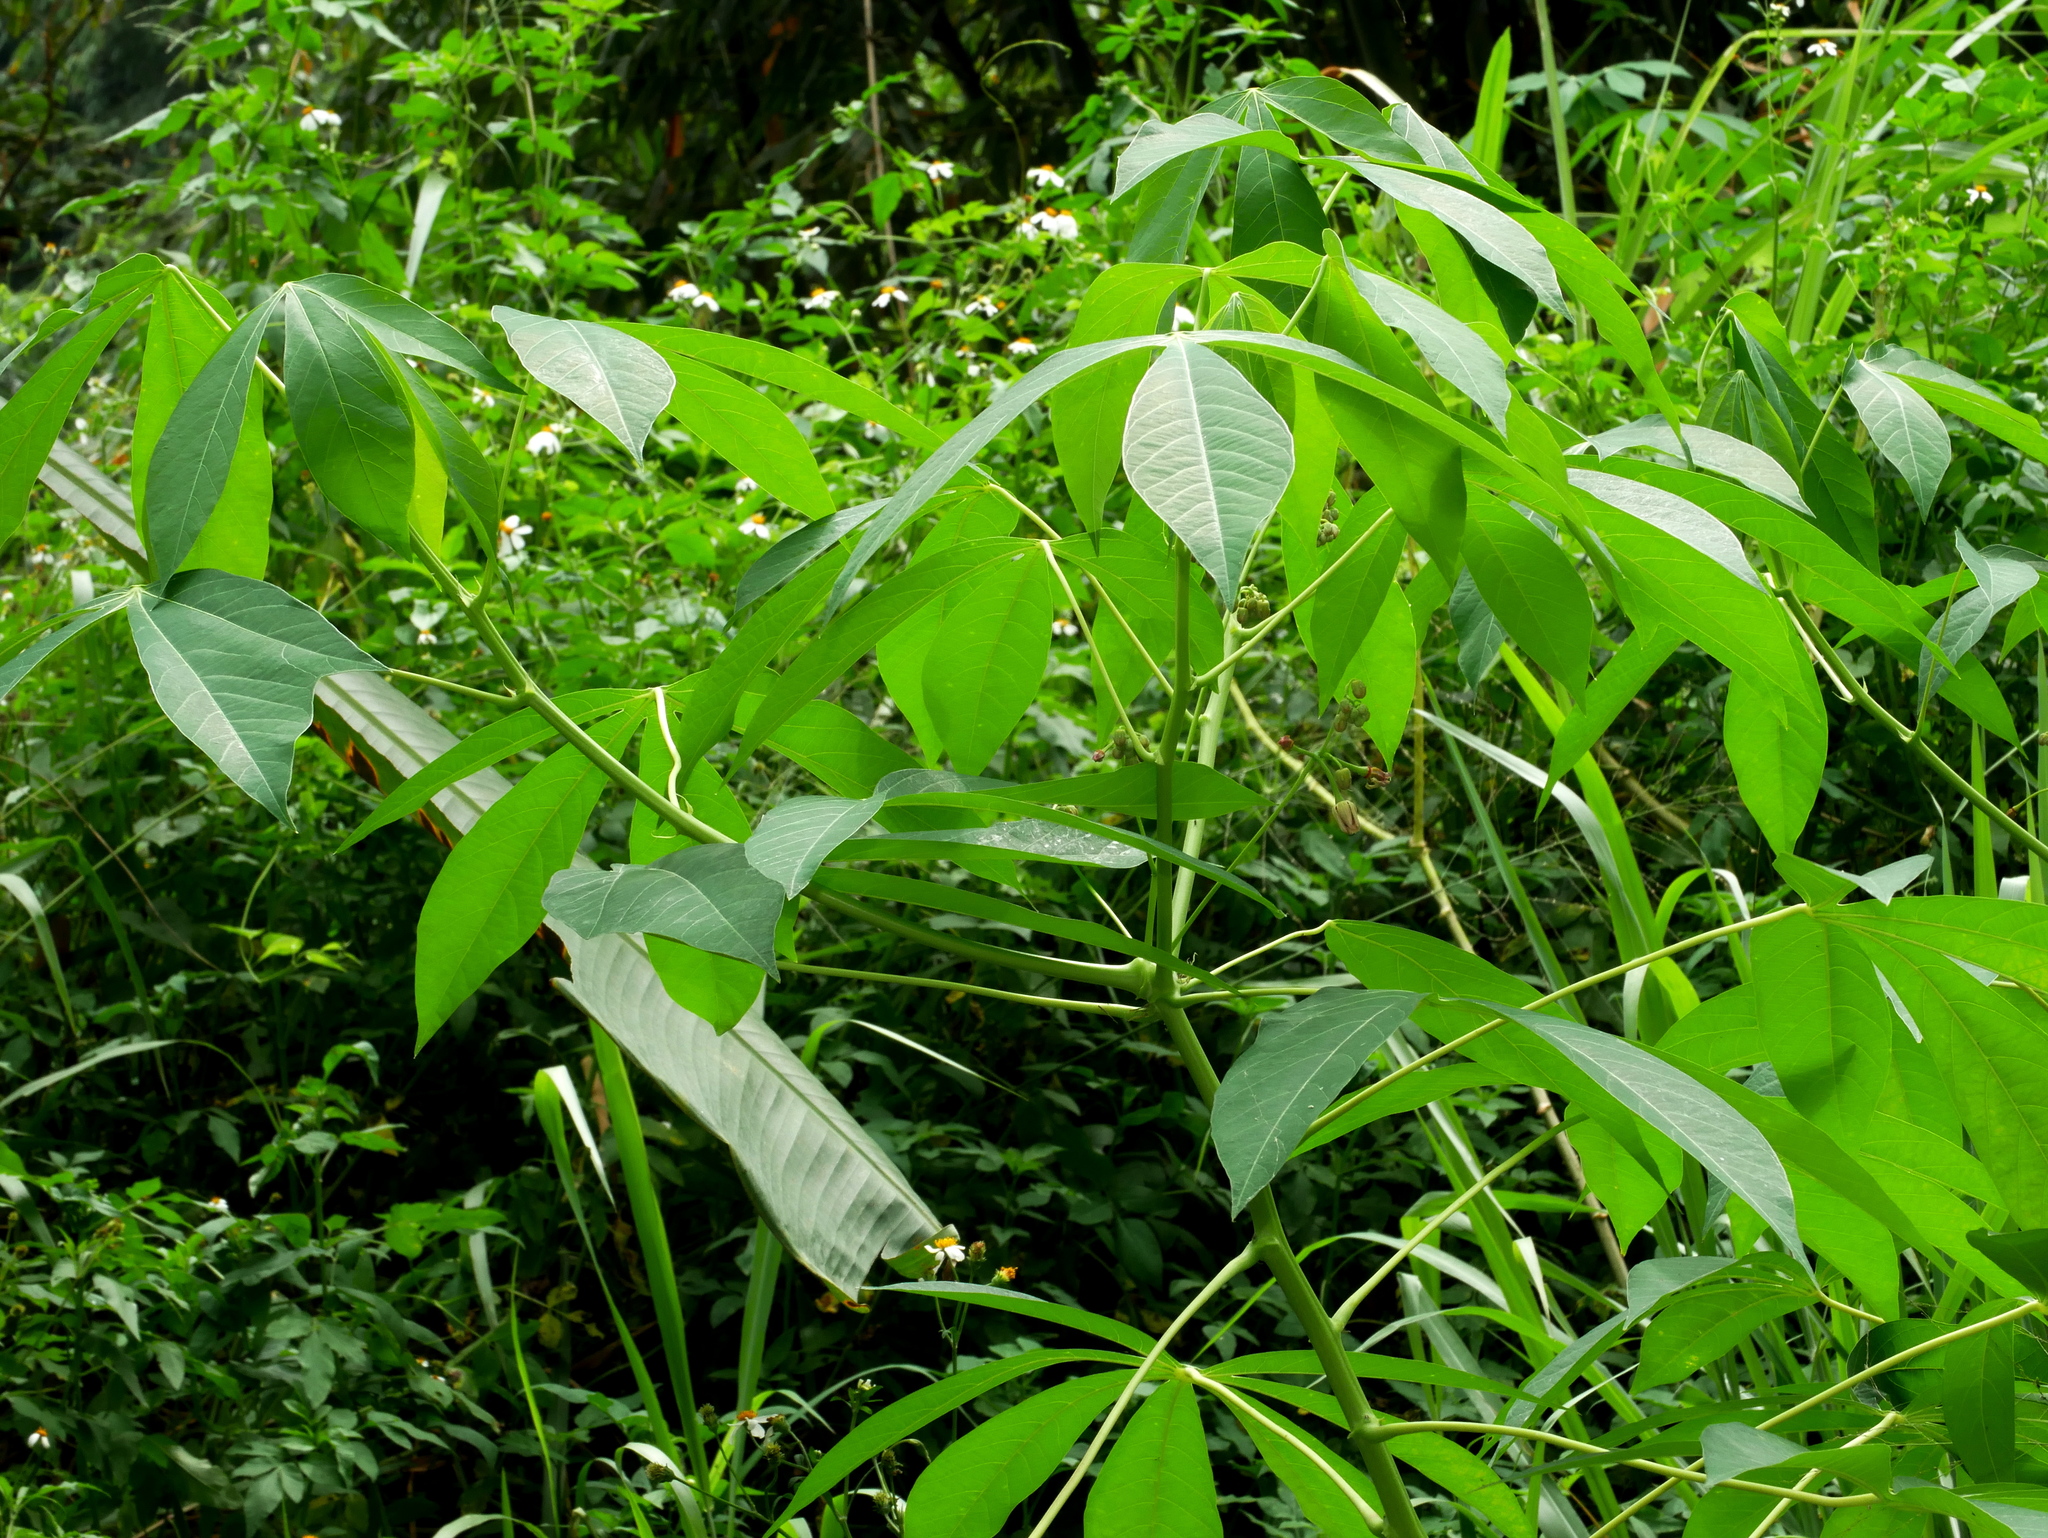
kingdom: Plantae
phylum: Tracheophyta
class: Magnoliopsida
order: Malpighiales
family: Euphorbiaceae
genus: Manihot
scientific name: Manihot esculenta
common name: Cassava
